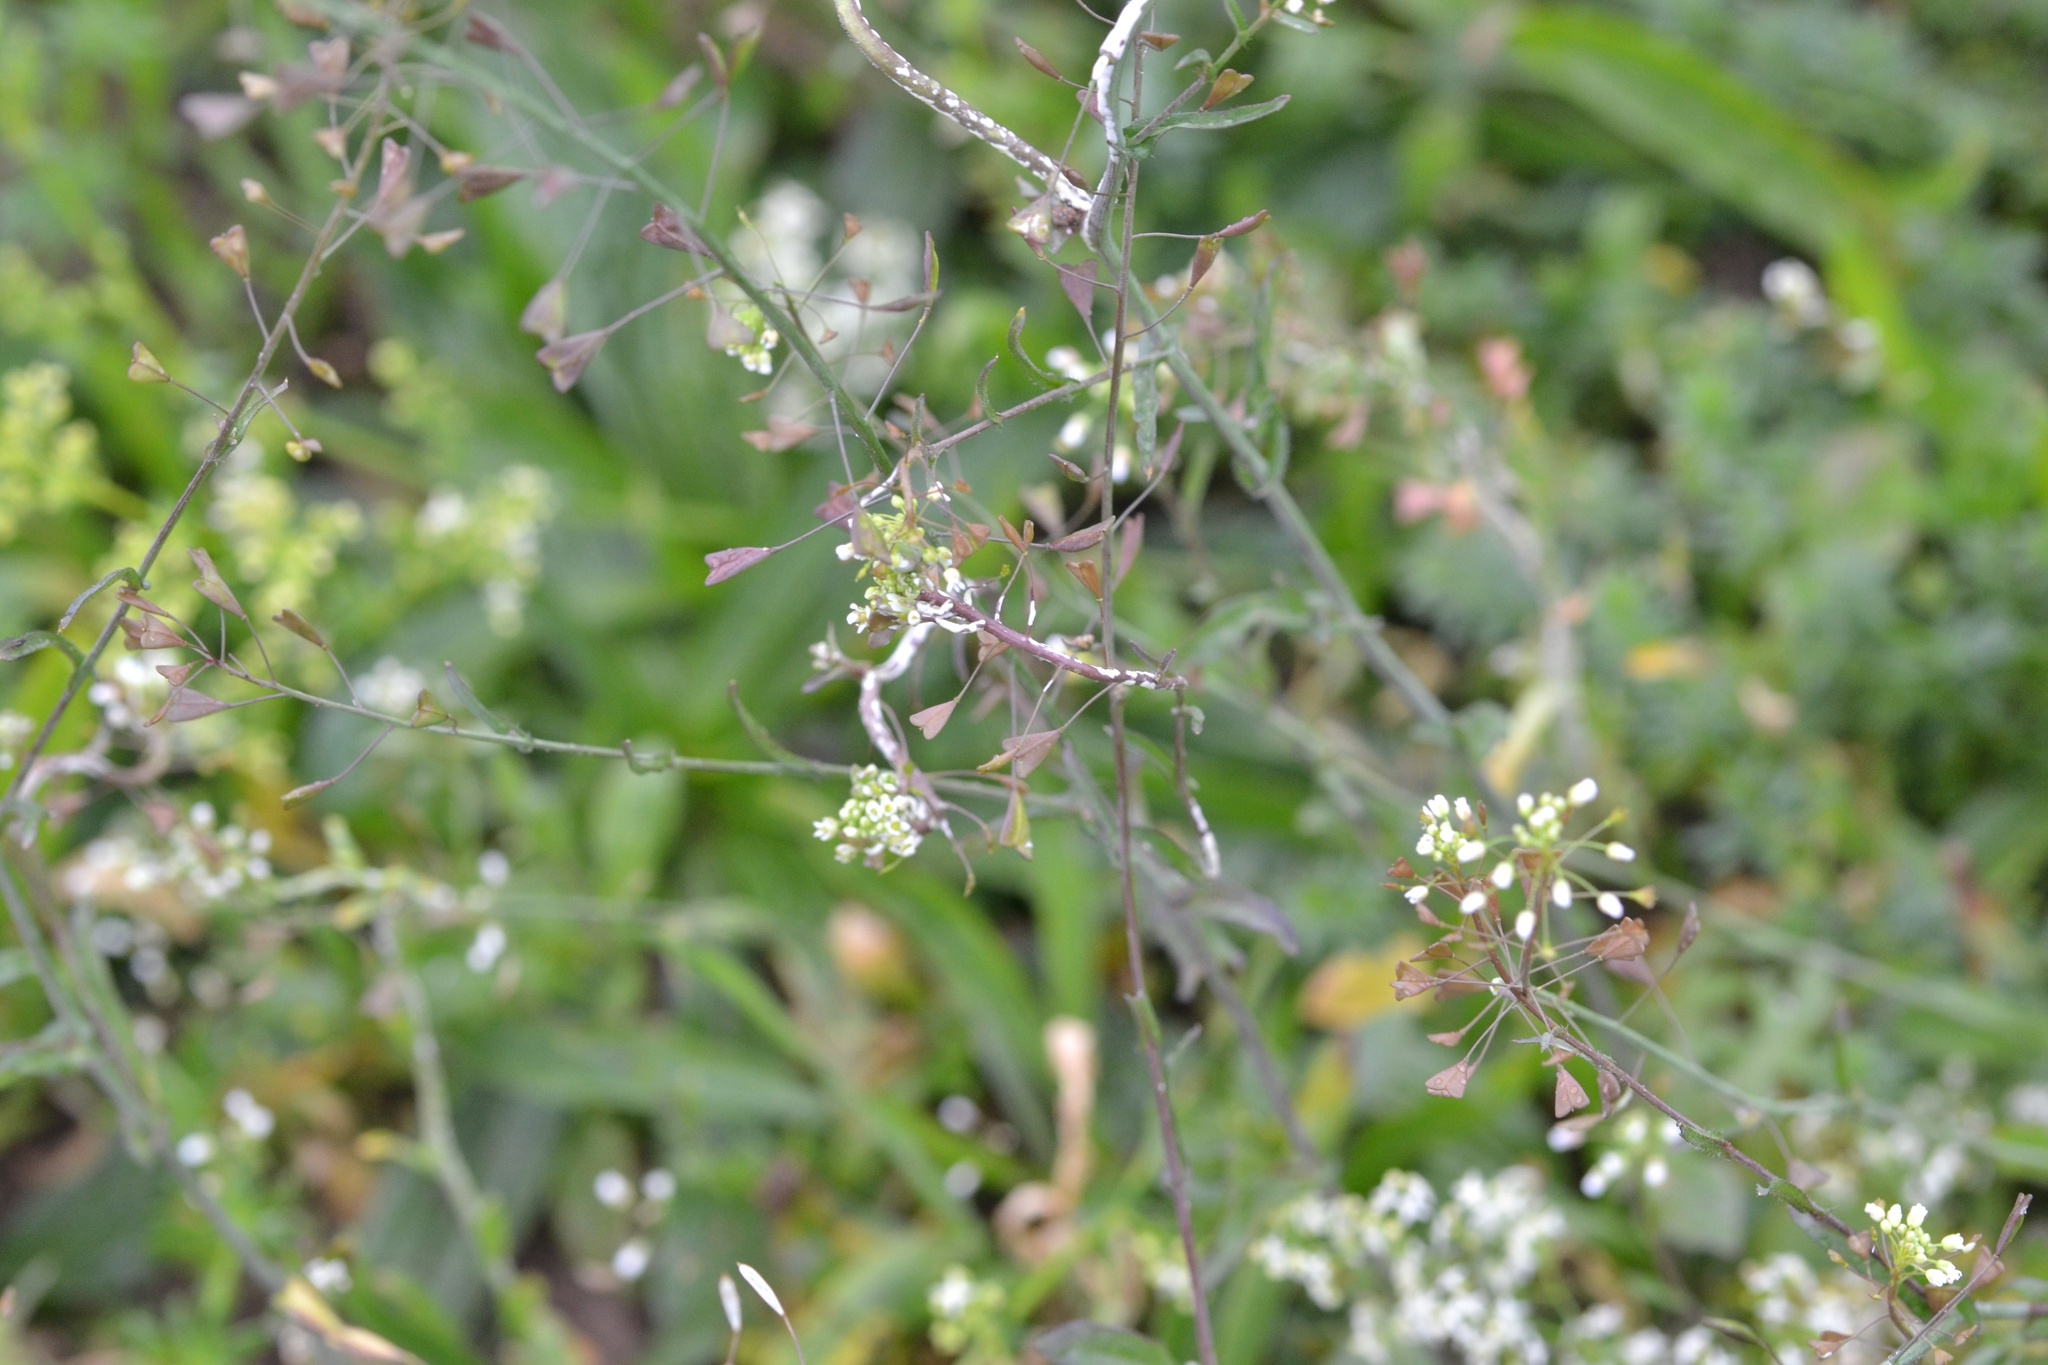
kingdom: Plantae
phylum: Tracheophyta
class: Magnoliopsida
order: Brassicales
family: Brassicaceae
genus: Capsella
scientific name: Capsella bursa-pastoris
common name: Shepherd's purse
